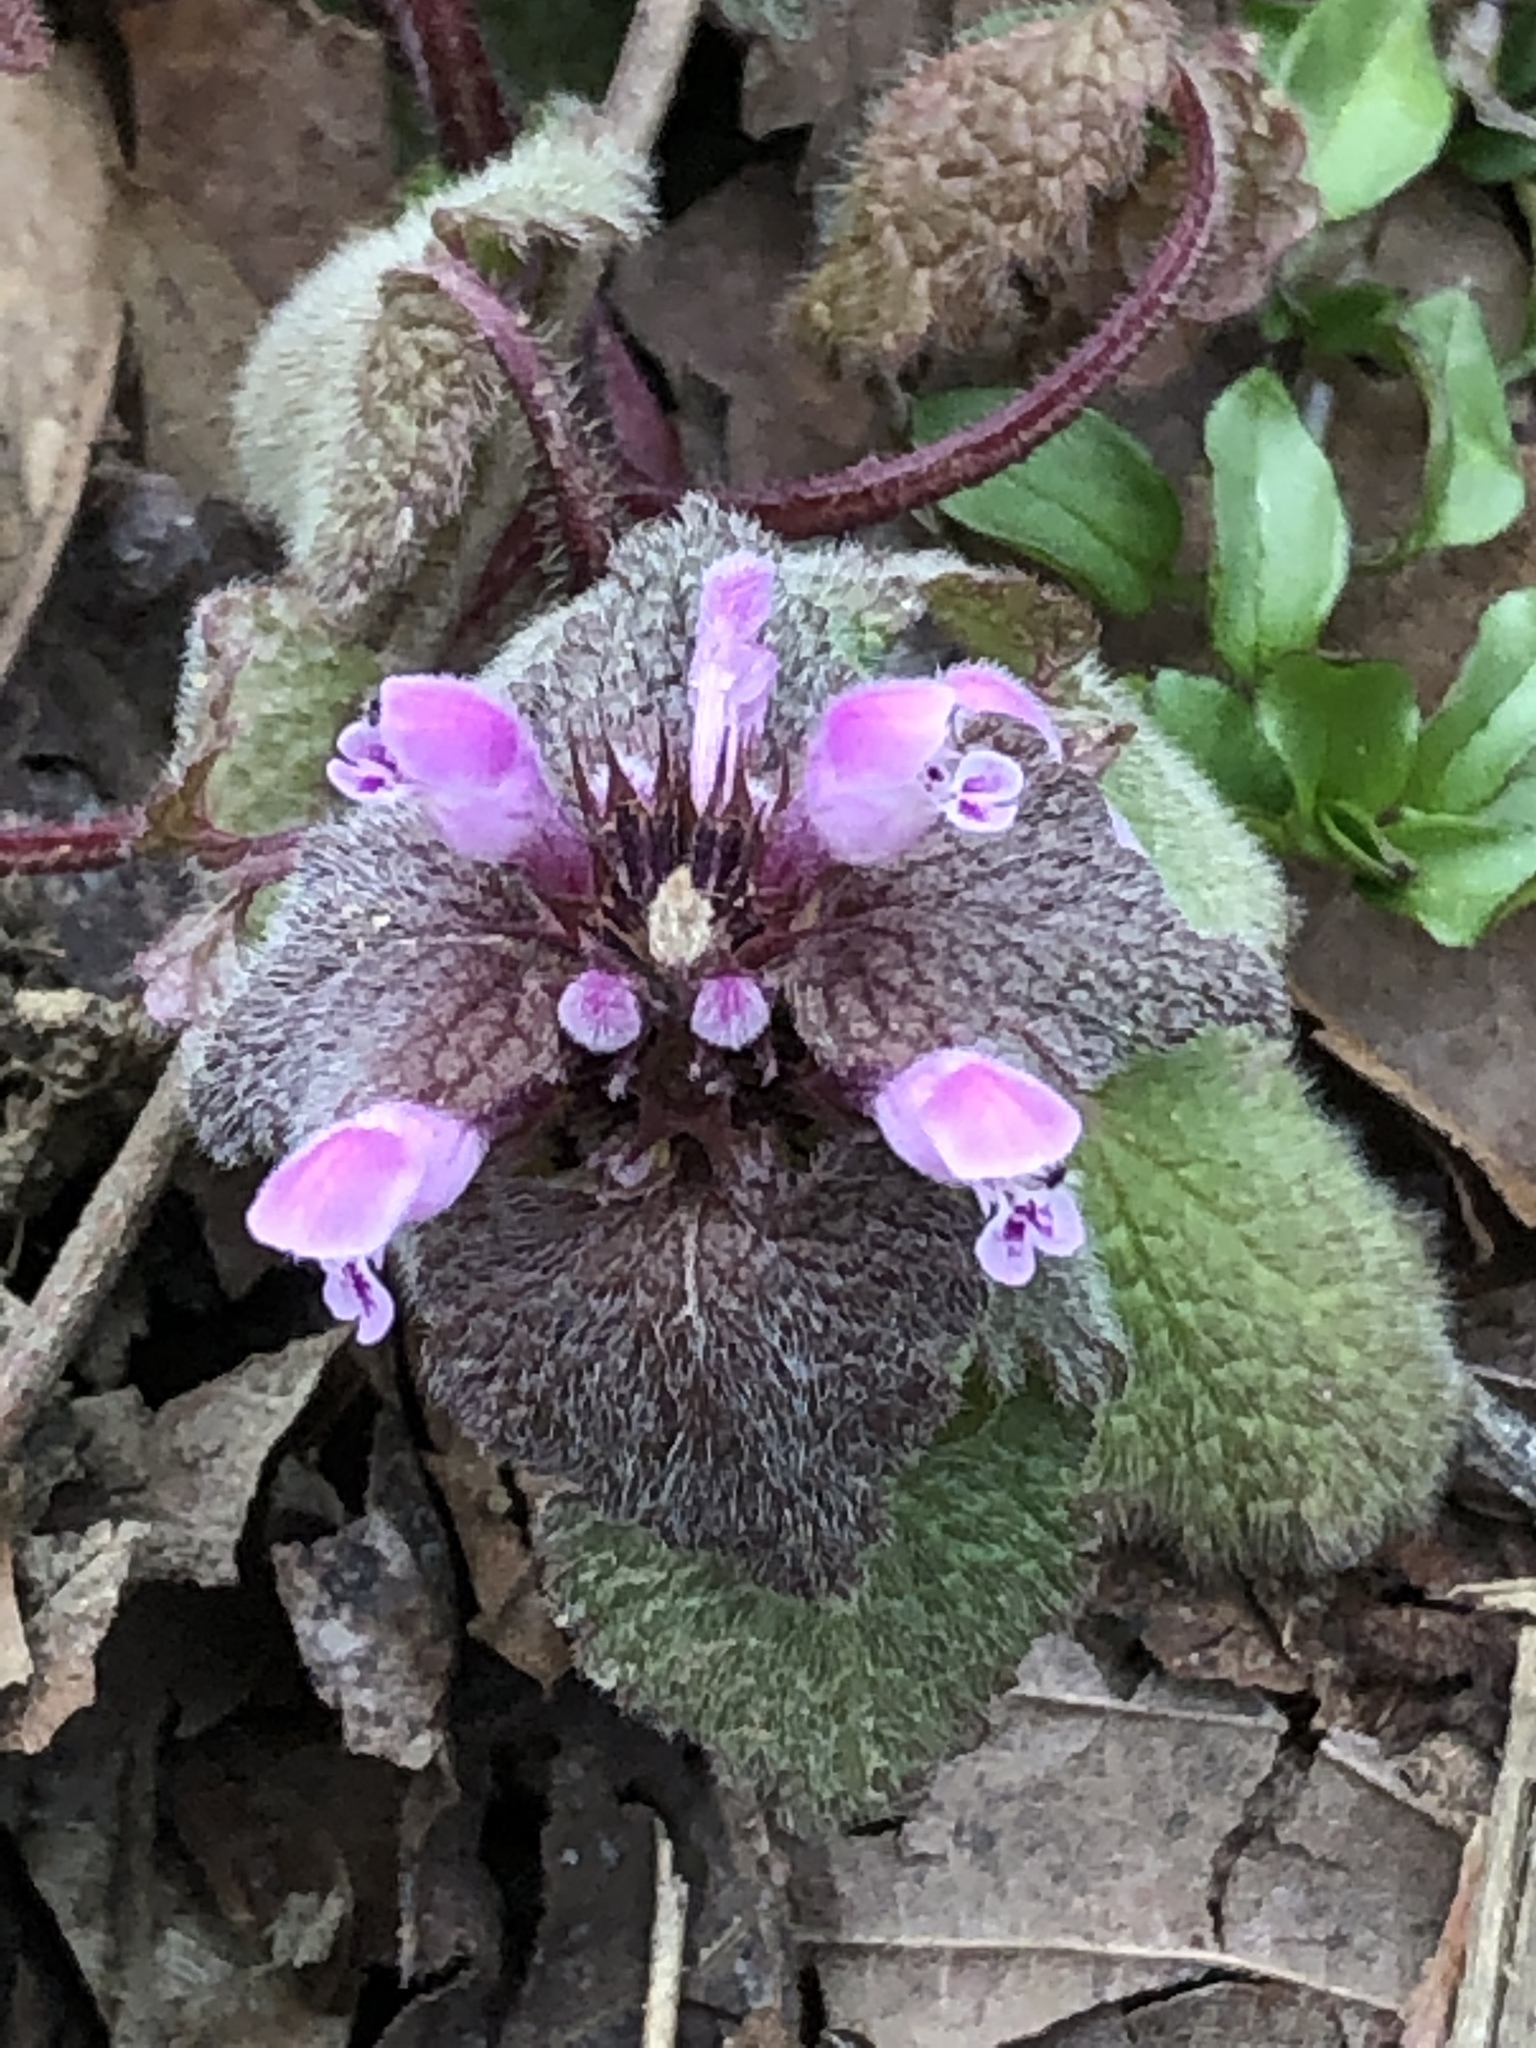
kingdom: Plantae
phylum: Tracheophyta
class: Magnoliopsida
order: Lamiales
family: Lamiaceae
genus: Lamium
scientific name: Lamium purpureum
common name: Red dead-nettle
